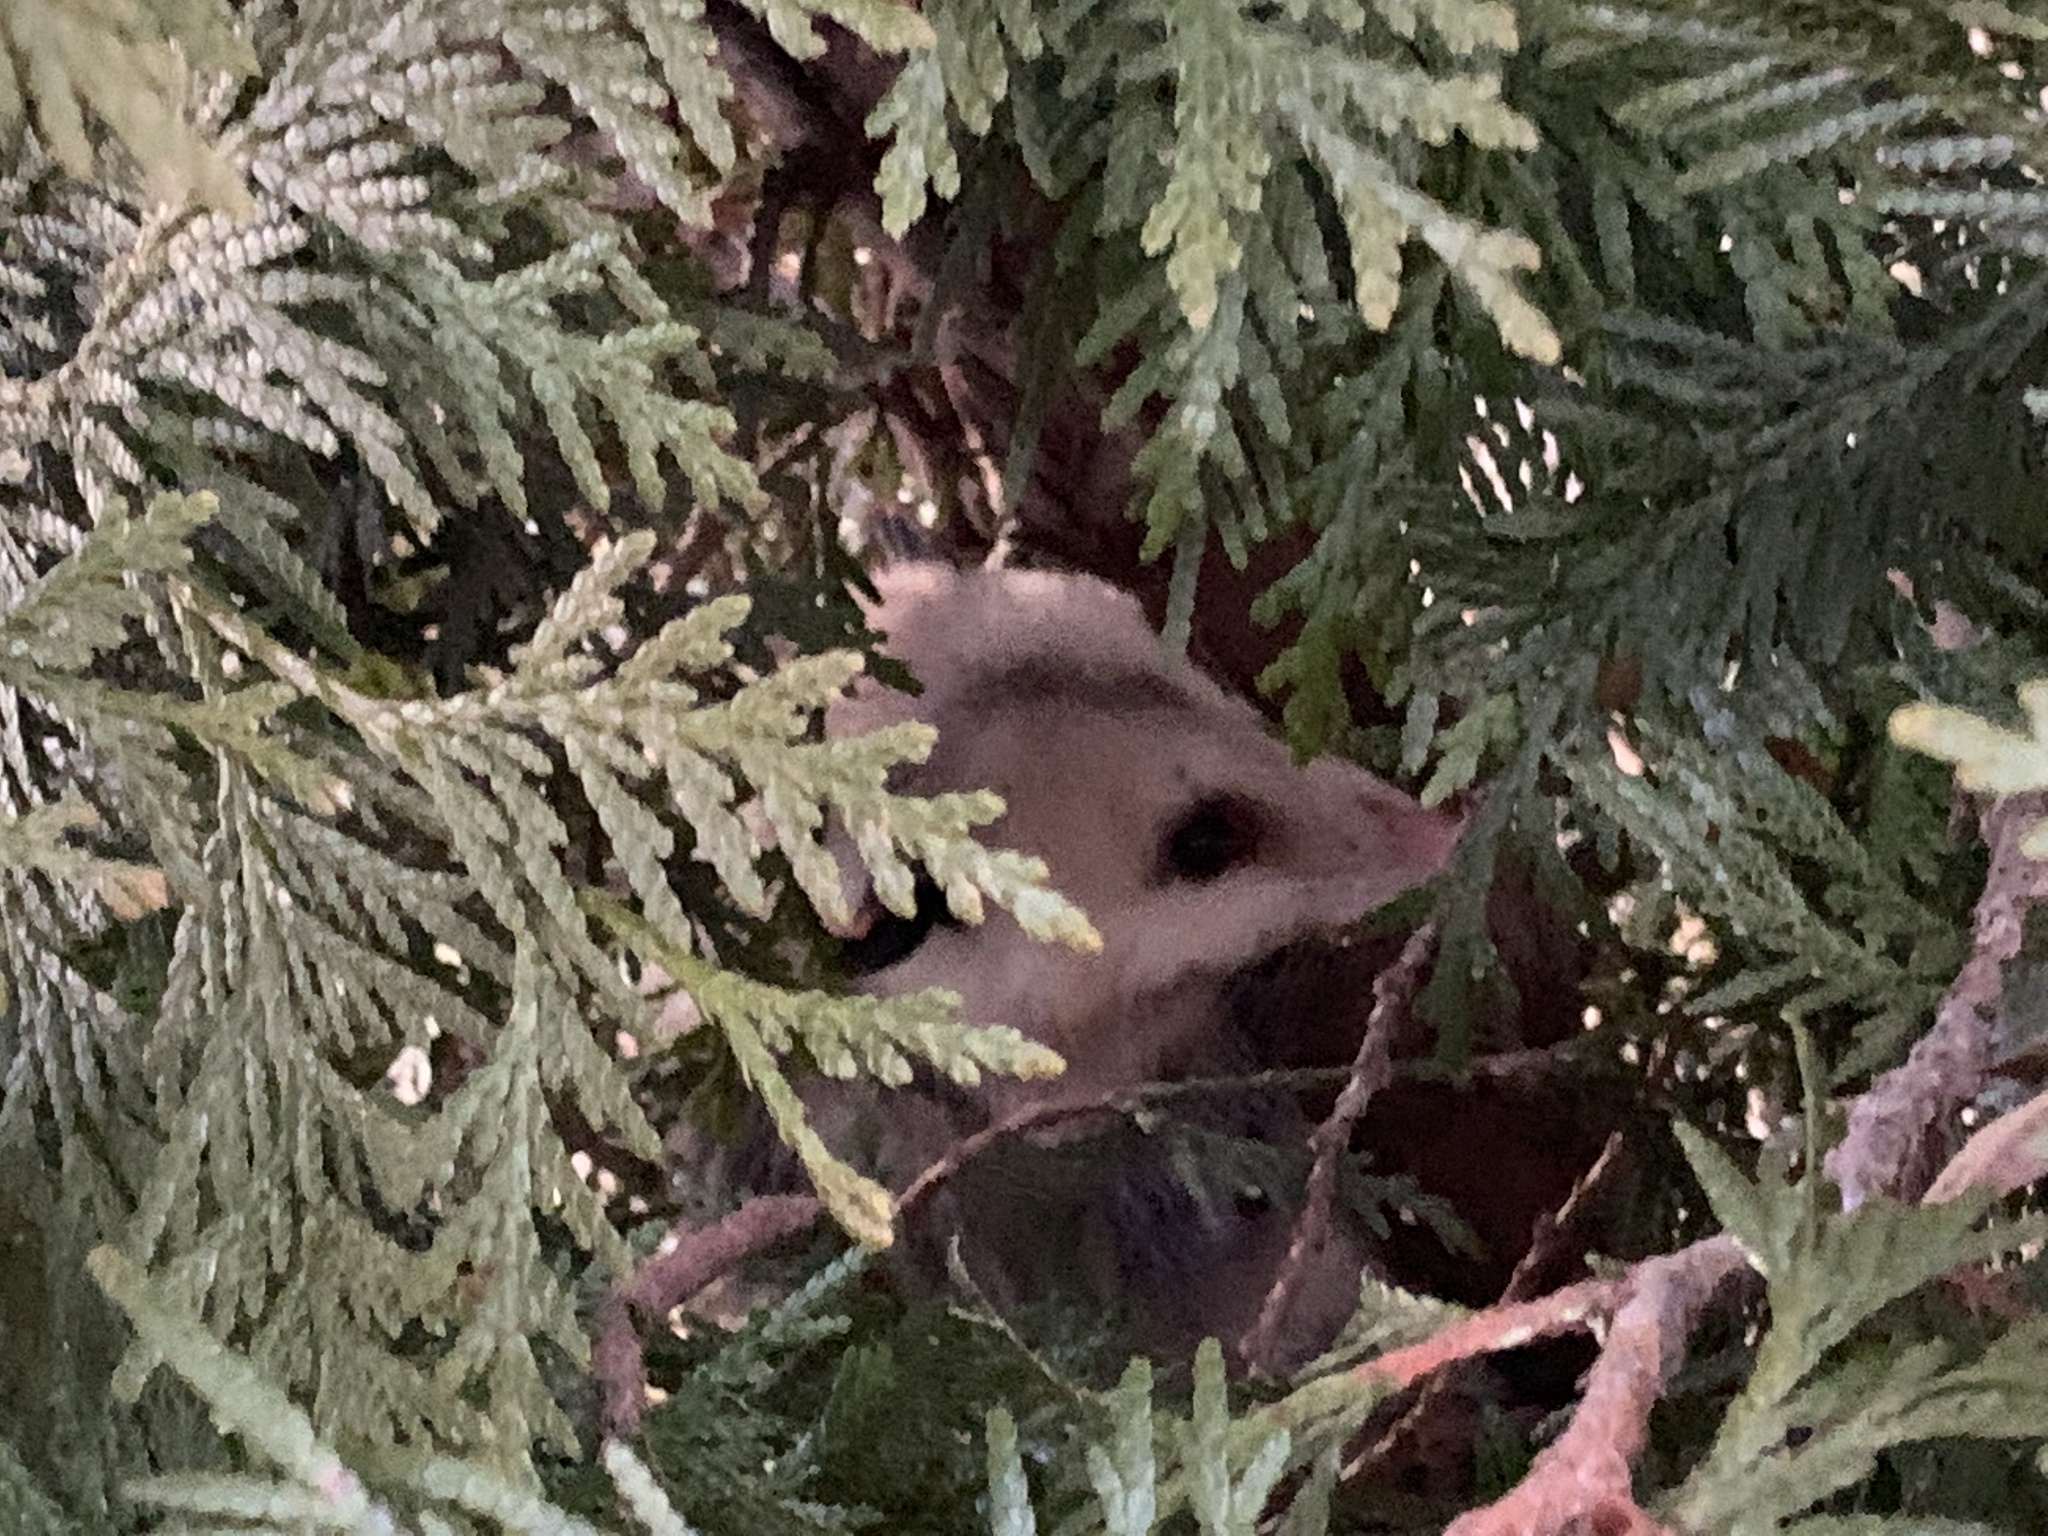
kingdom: Animalia
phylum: Chordata
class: Mammalia
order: Didelphimorphia
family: Didelphidae
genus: Didelphis
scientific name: Didelphis virginiana
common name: Virginia opossum
